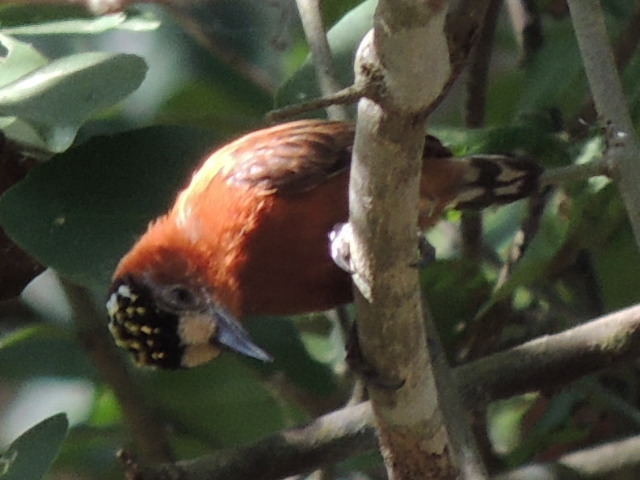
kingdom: Animalia
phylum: Chordata
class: Aves
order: Piciformes
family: Picidae
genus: Picumnus
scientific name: Picumnus cinnamomeus
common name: Chestnut piculet
